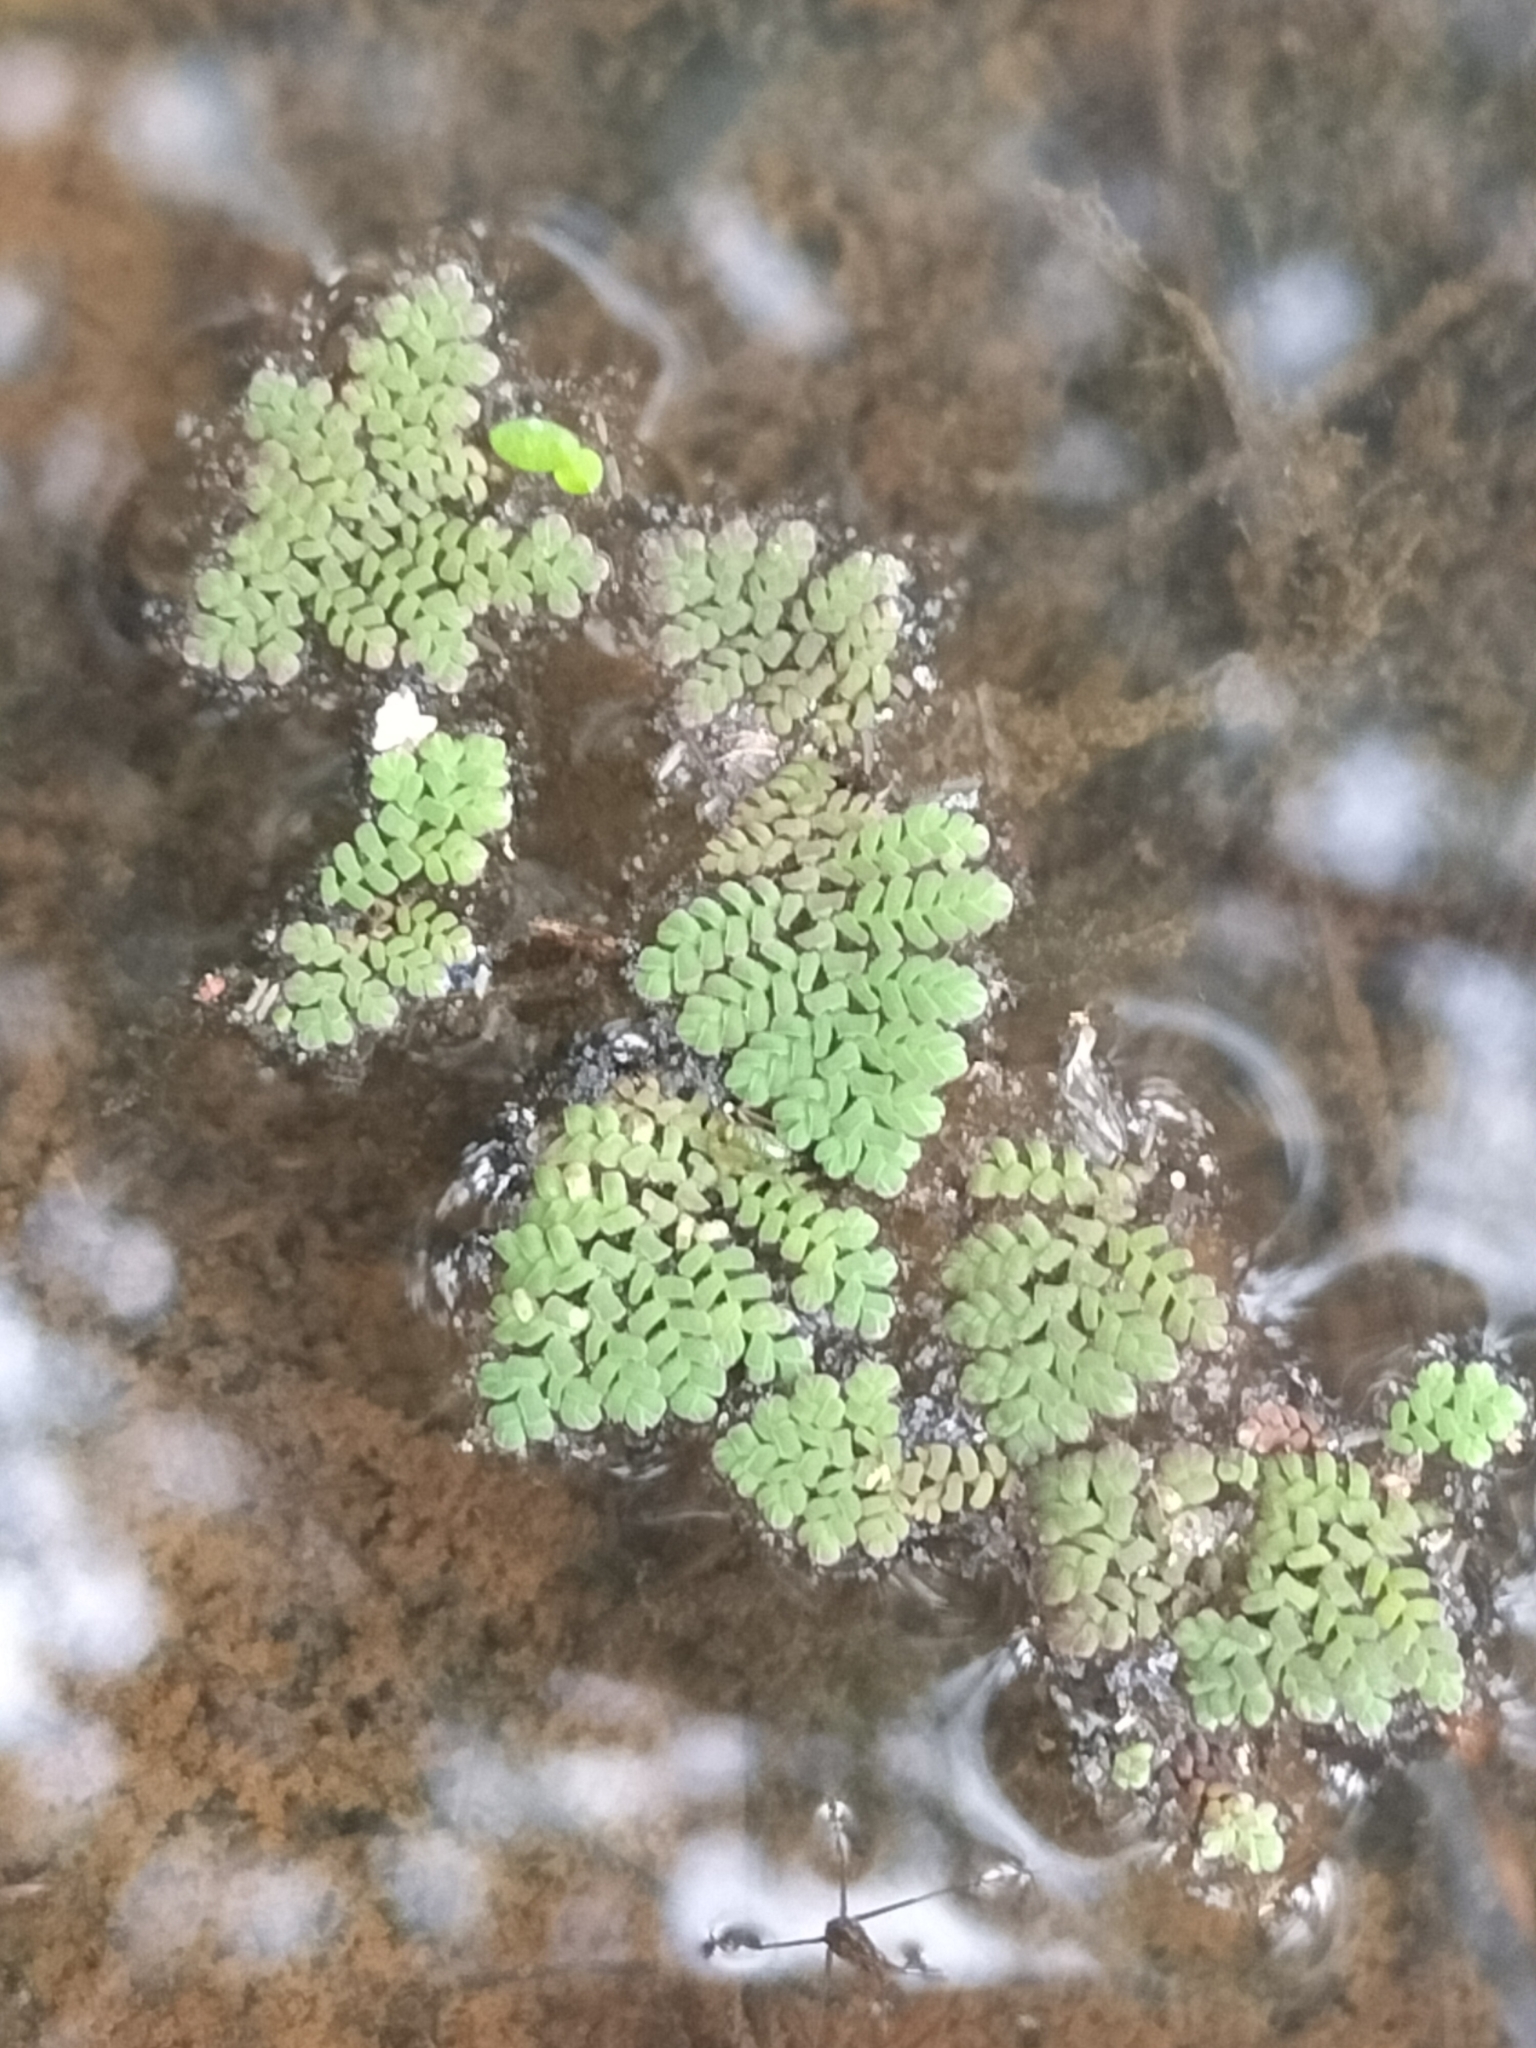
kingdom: Plantae
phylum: Tracheophyta
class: Polypodiopsida
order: Salviniales
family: Salviniaceae
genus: Azolla
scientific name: Azolla pinnata
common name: Ferny azolla
